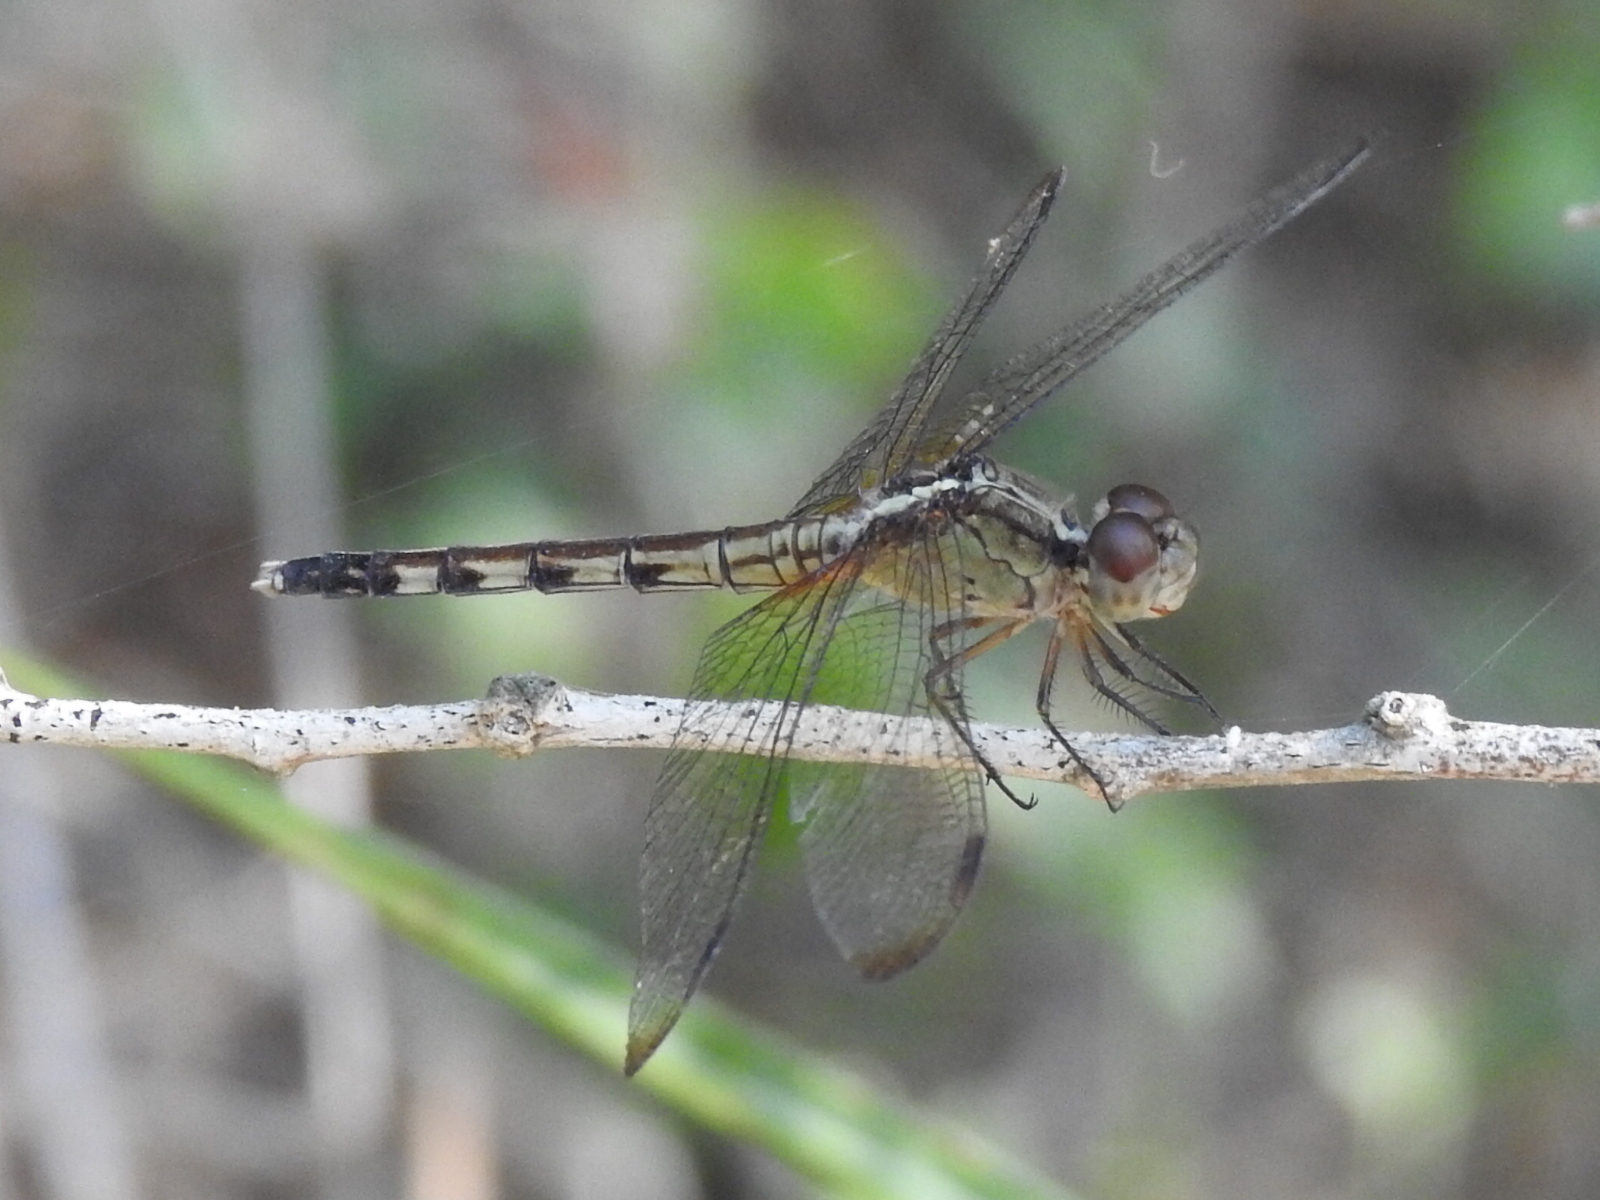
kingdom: Animalia
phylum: Arthropoda
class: Insecta
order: Odonata
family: Libellulidae
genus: Erythrodiplax
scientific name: Erythrodiplax umbrata
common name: Band-winged dragonlet
